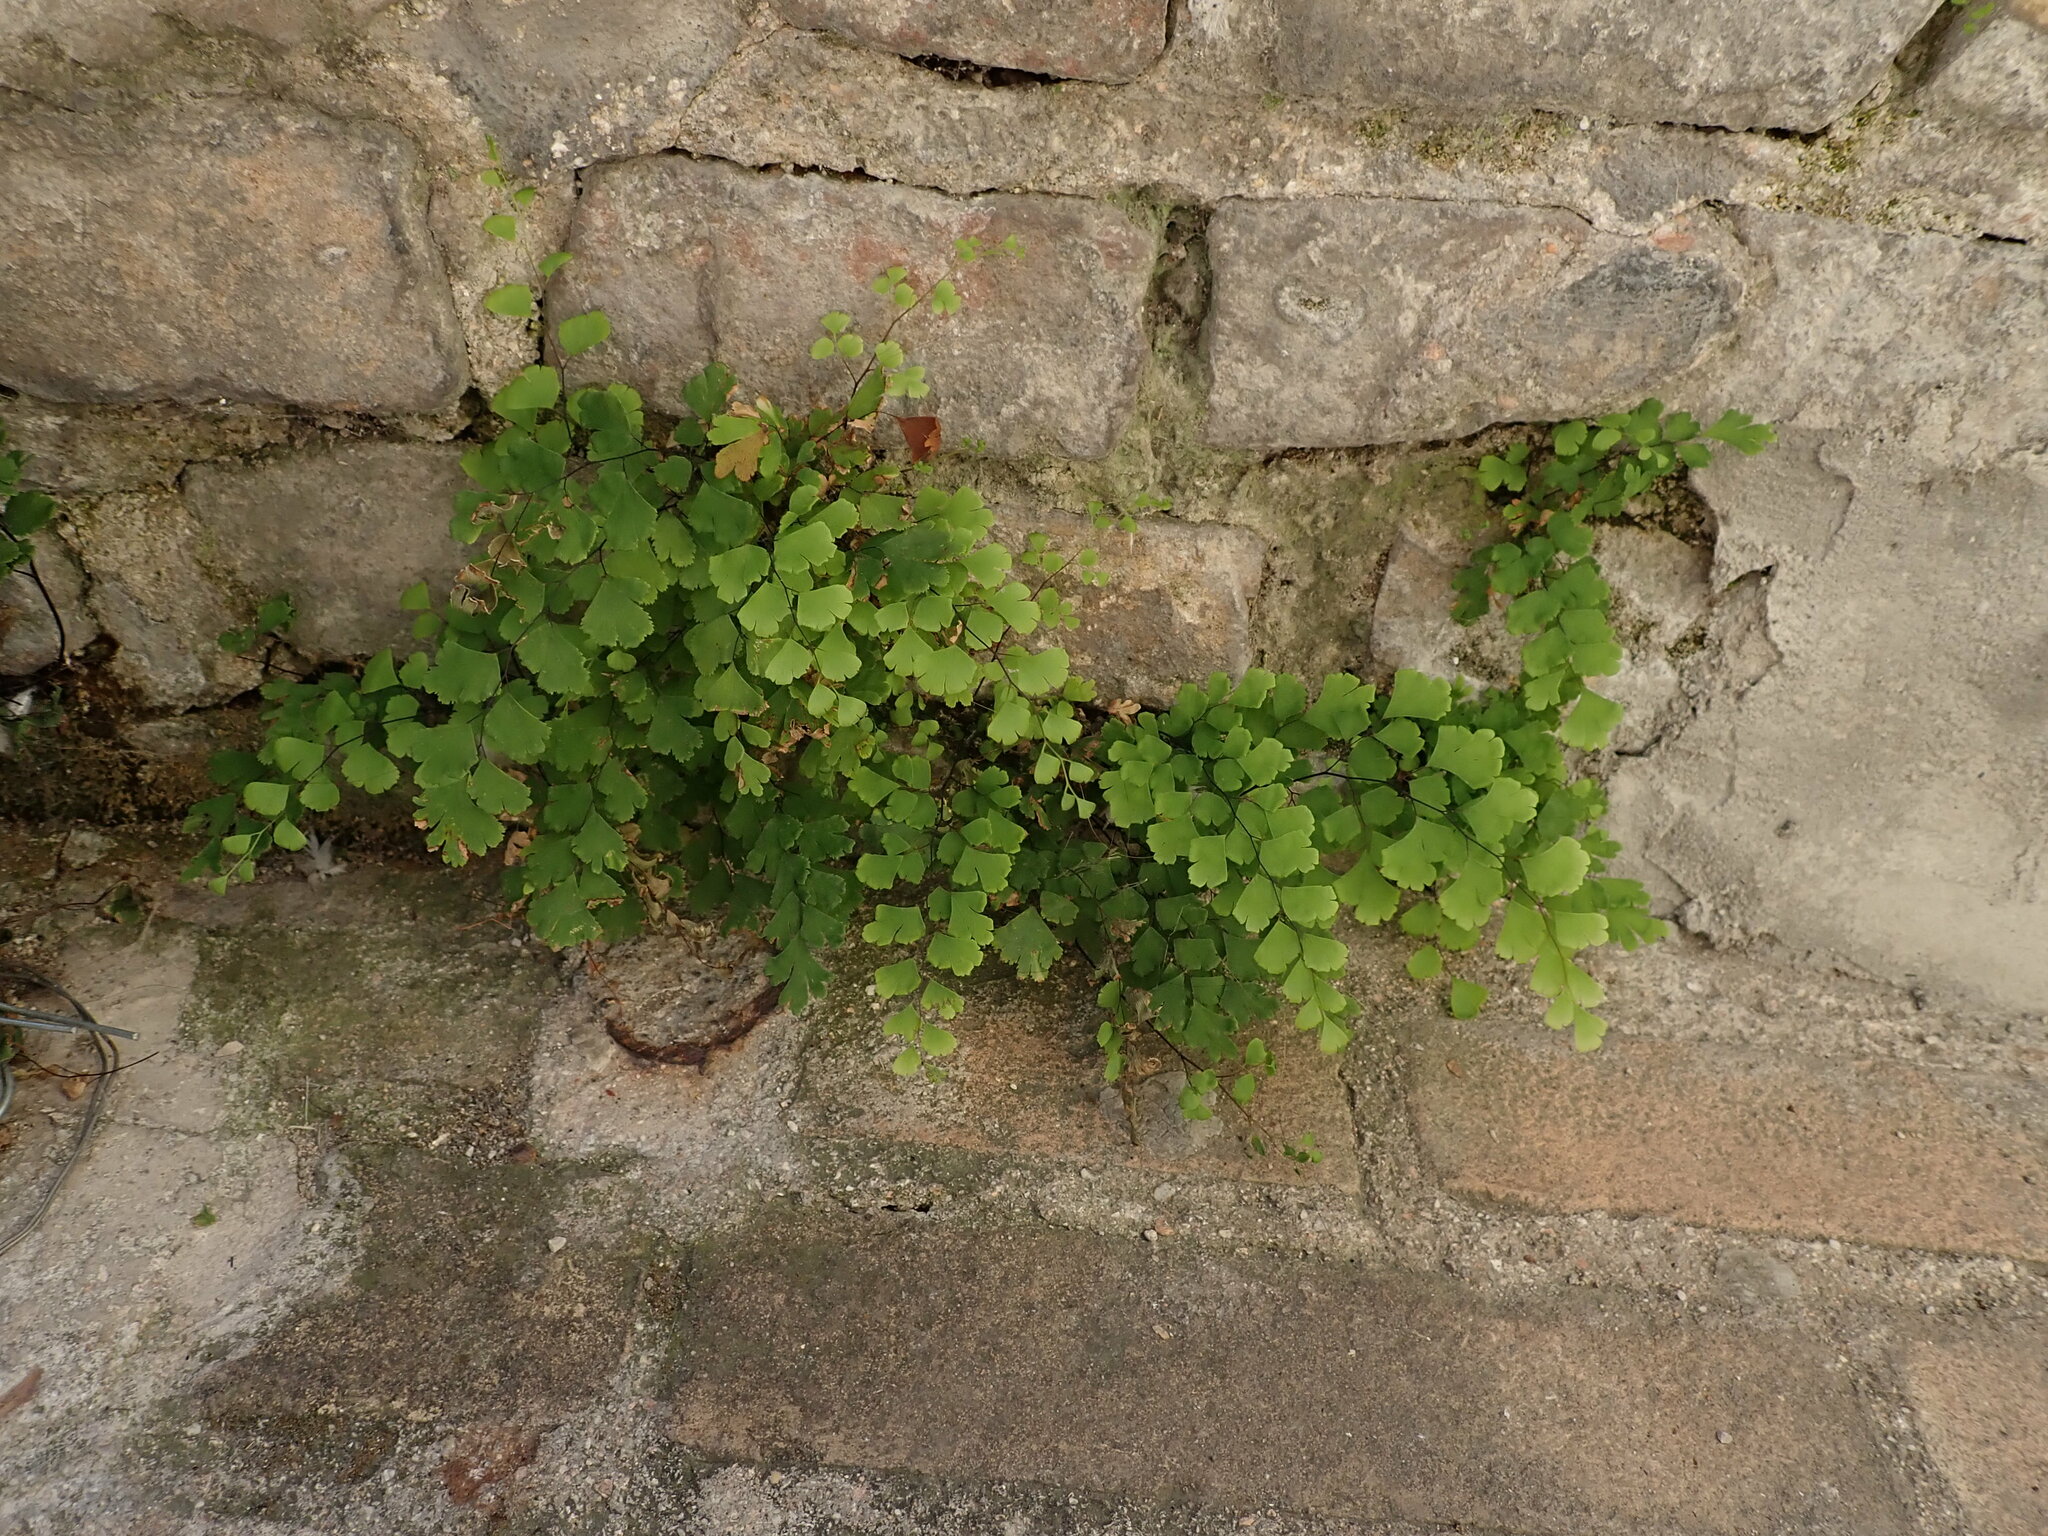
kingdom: Plantae
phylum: Tracheophyta
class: Polypodiopsida
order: Polypodiales
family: Pteridaceae
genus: Adiantum
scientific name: Adiantum capillus-veneris
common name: Maidenhair fern
